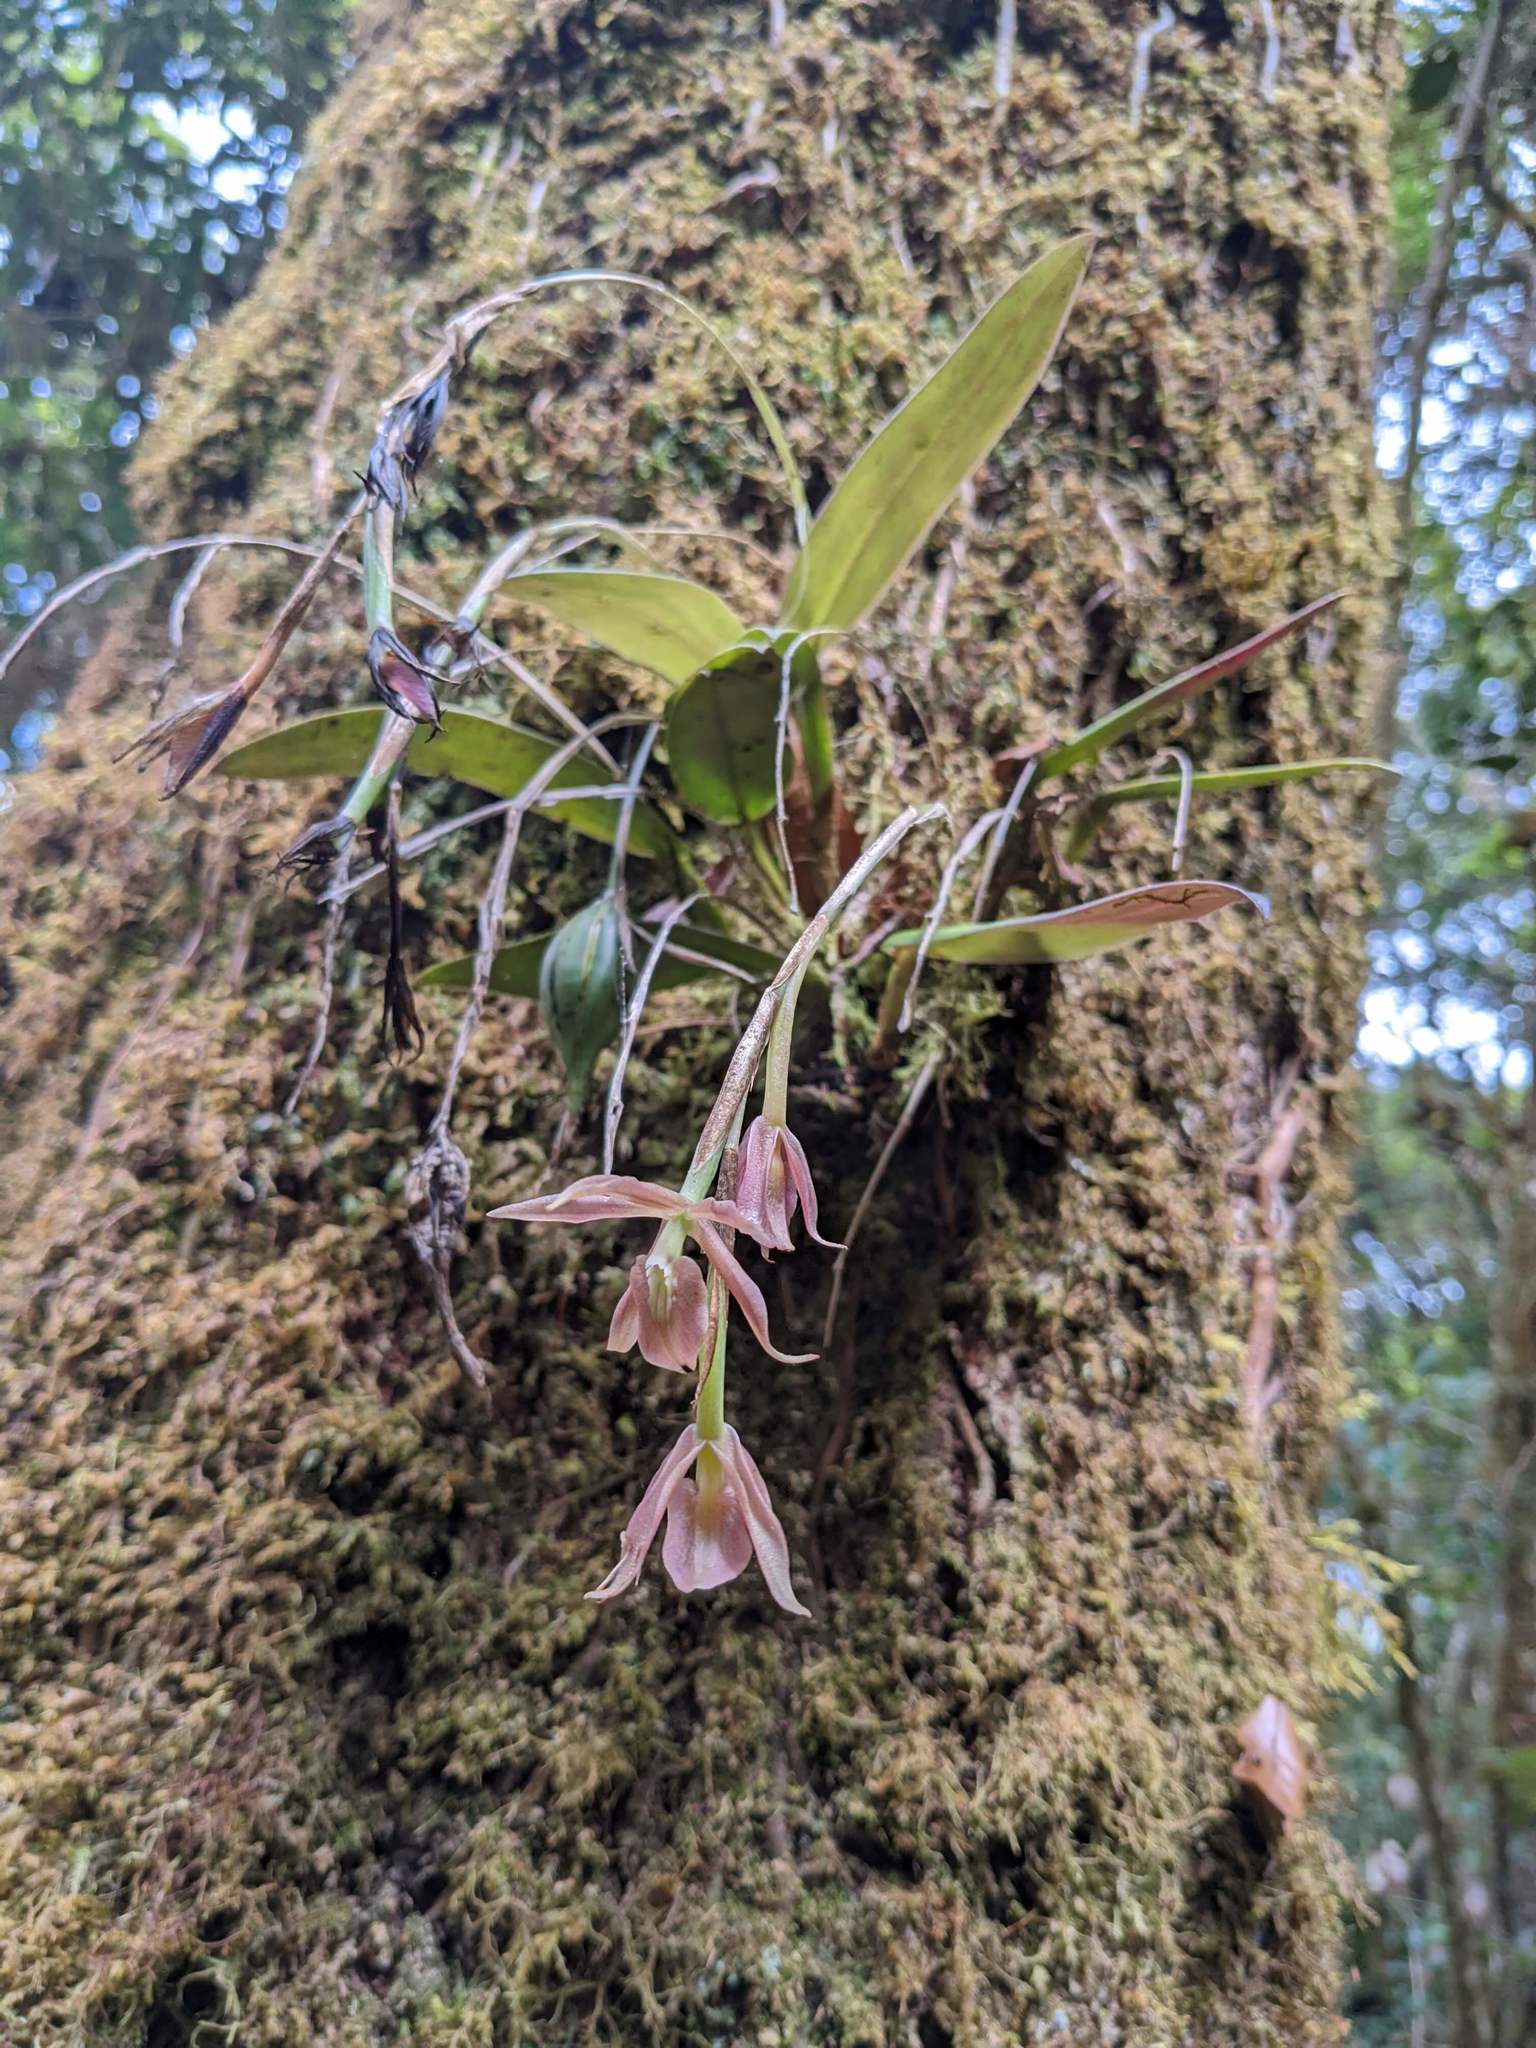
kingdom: Plantae
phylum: Tracheophyta
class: Liliopsida
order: Asparagales
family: Orchidaceae
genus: Epidendrum
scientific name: Epidendrum pallens
